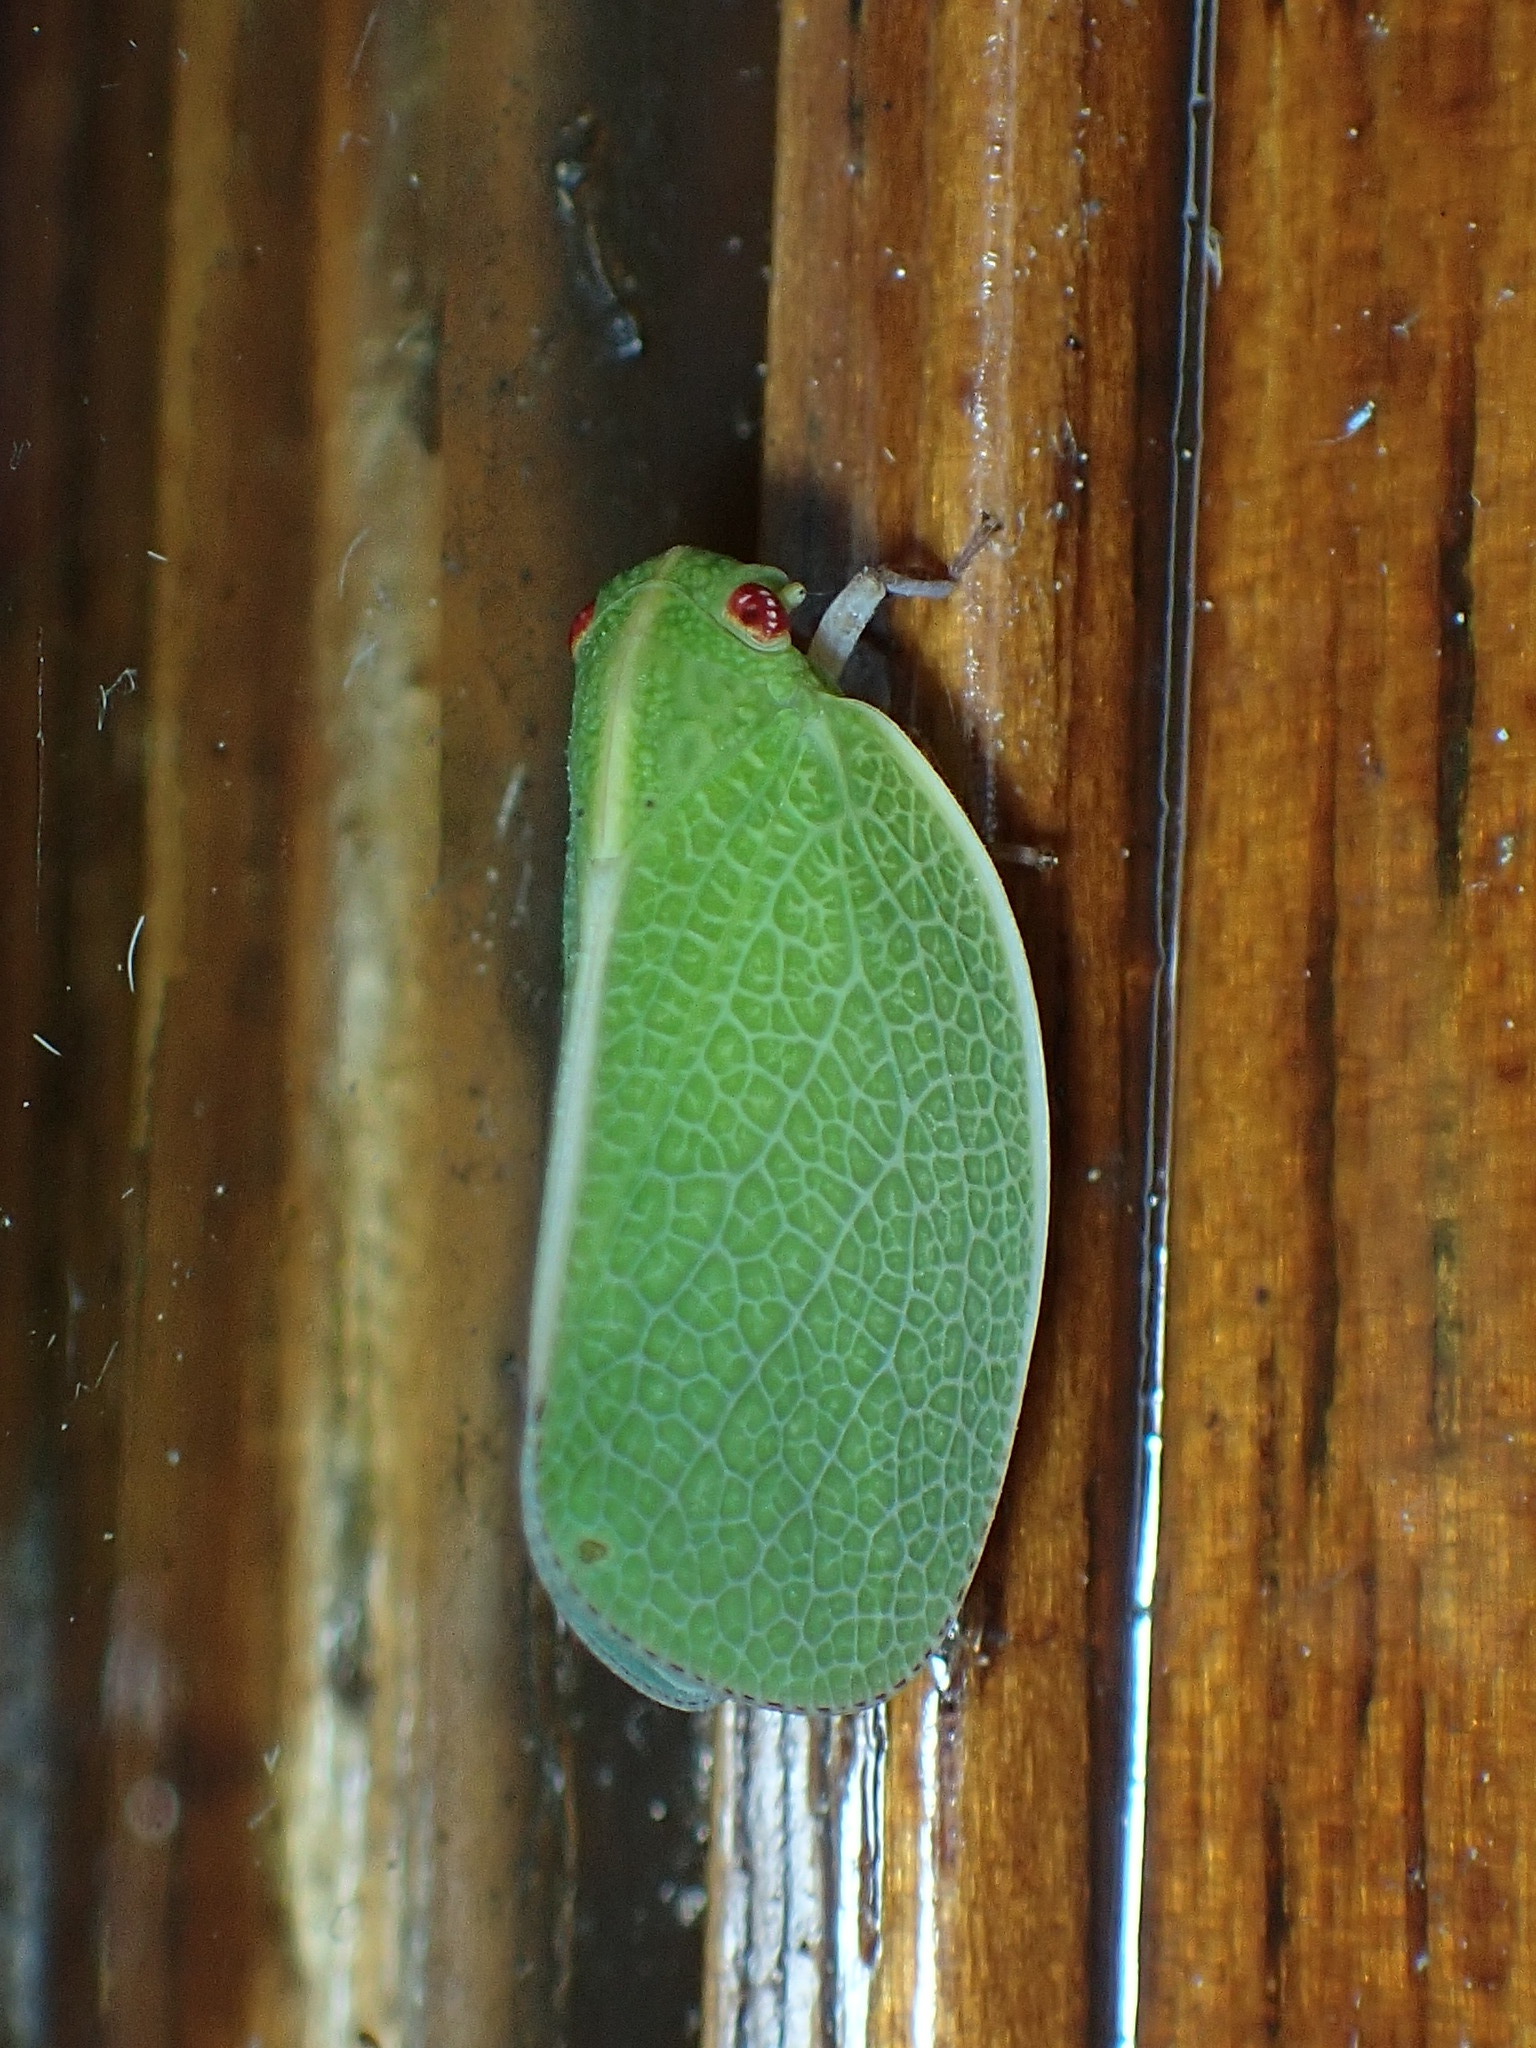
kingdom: Animalia
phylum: Arthropoda
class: Insecta
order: Hemiptera
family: Acanaloniidae
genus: Acanalonia
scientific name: Acanalonia servillei
